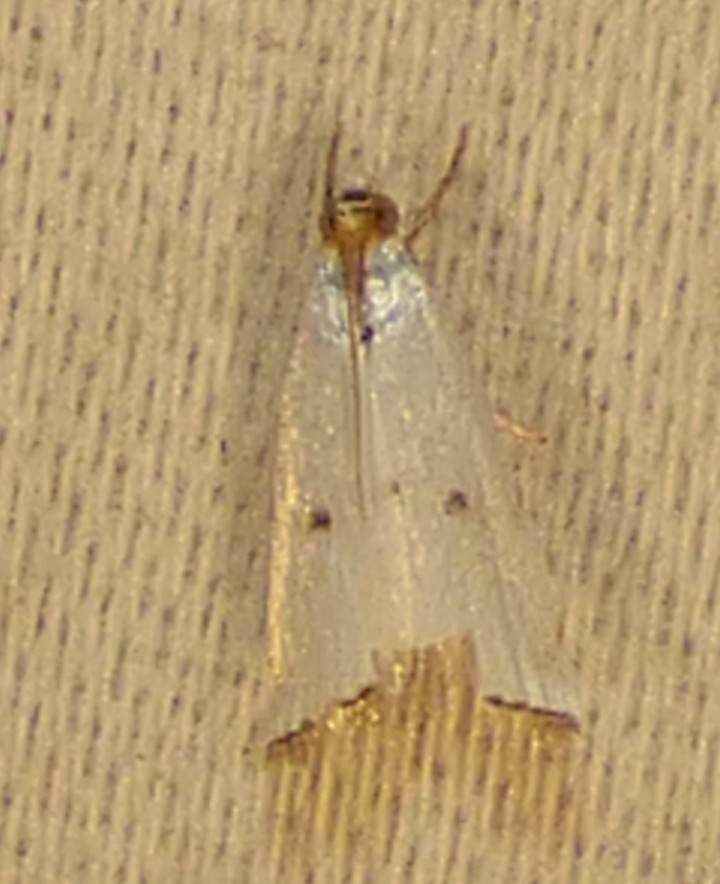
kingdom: Animalia
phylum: Arthropoda
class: Insecta
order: Lepidoptera
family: Crambidae
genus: Argyria
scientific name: Argyria pusillalis
